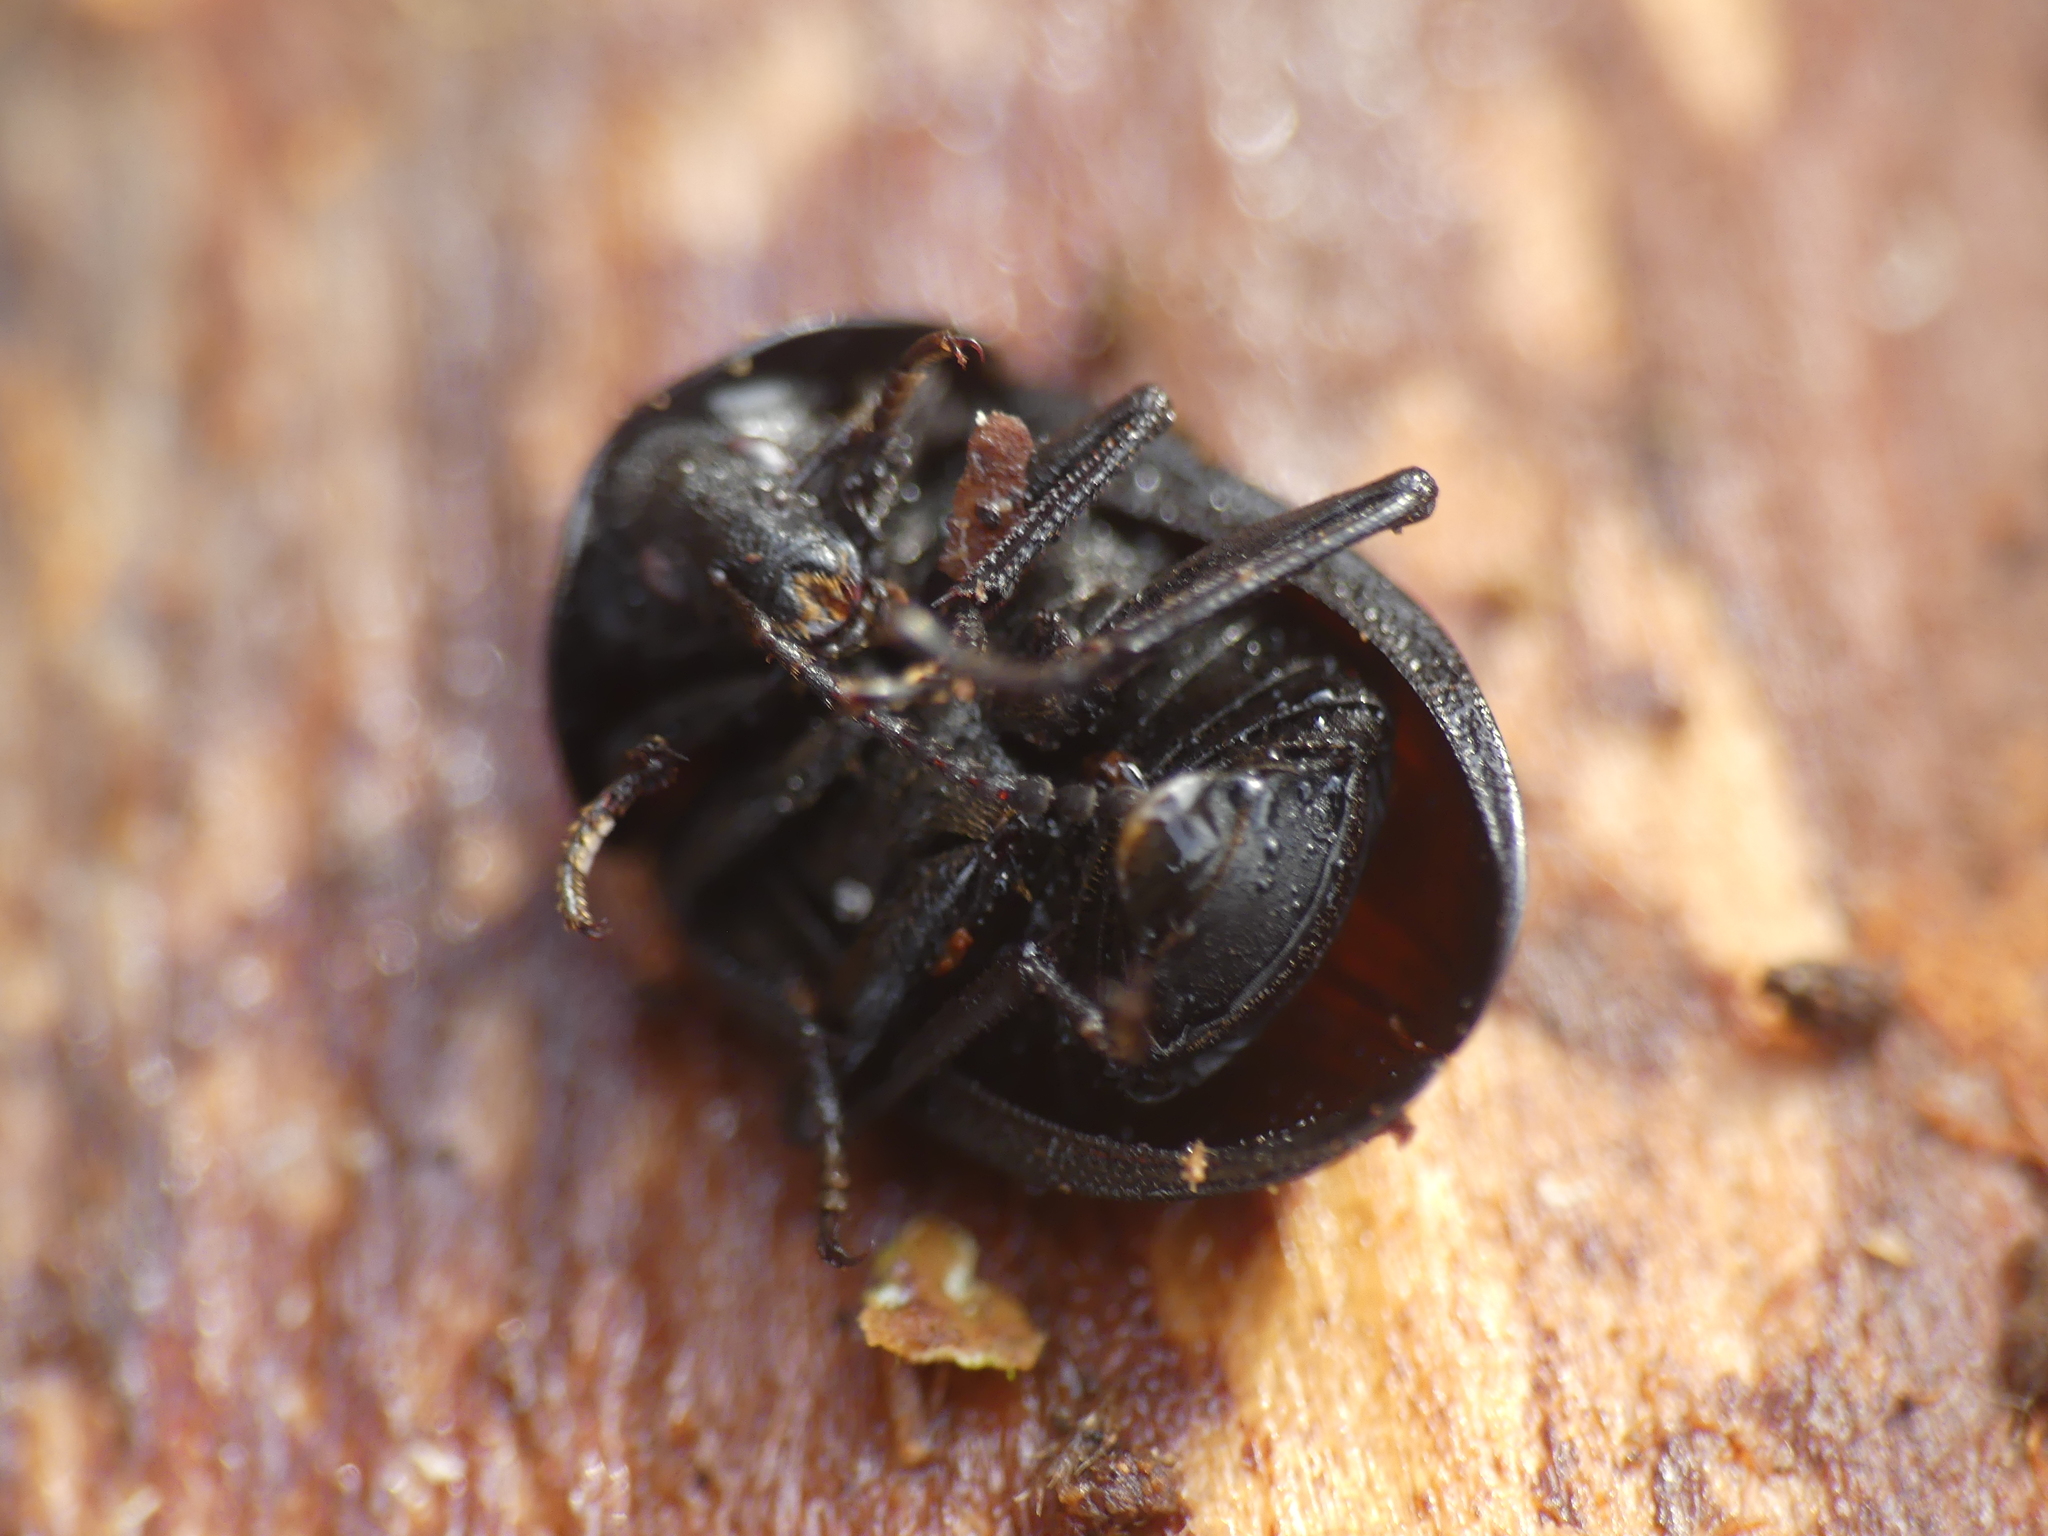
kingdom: Animalia
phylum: Arthropoda
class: Insecta
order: Coleoptera
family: Staphylinidae
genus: Silpha
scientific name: Silpha atrata
